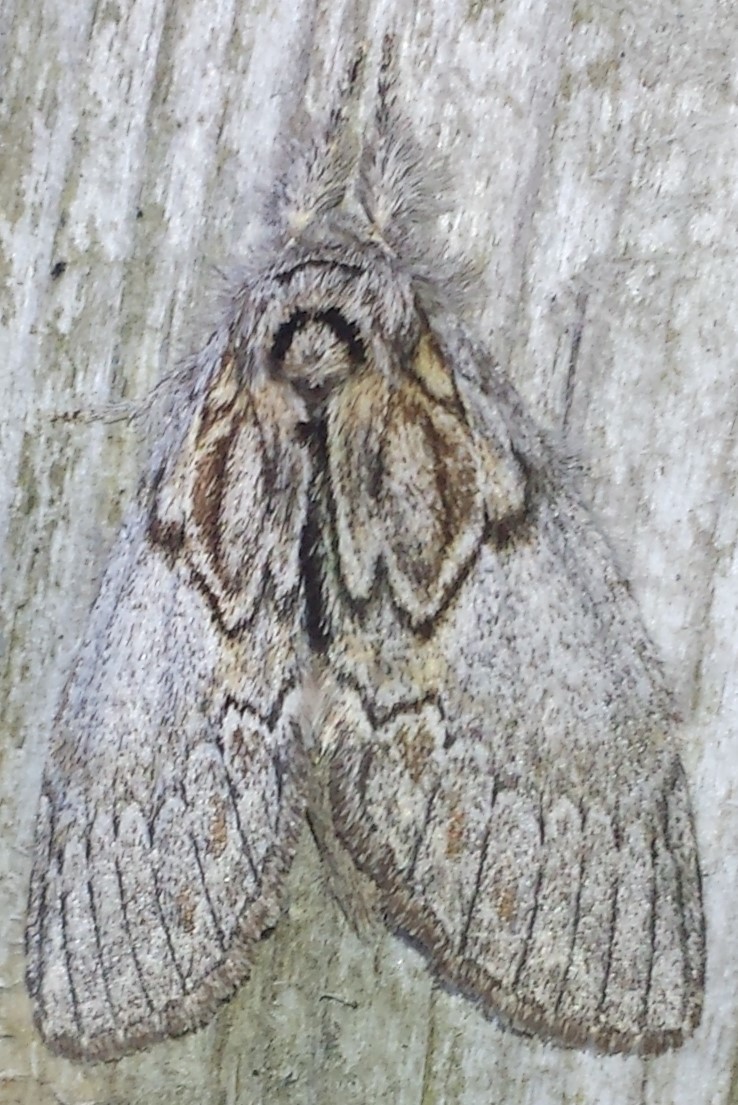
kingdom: Animalia
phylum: Arthropoda
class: Insecta
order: Lepidoptera
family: Notodontidae
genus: Peridea
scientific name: Peridea basitriens
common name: Oval-based prominent
